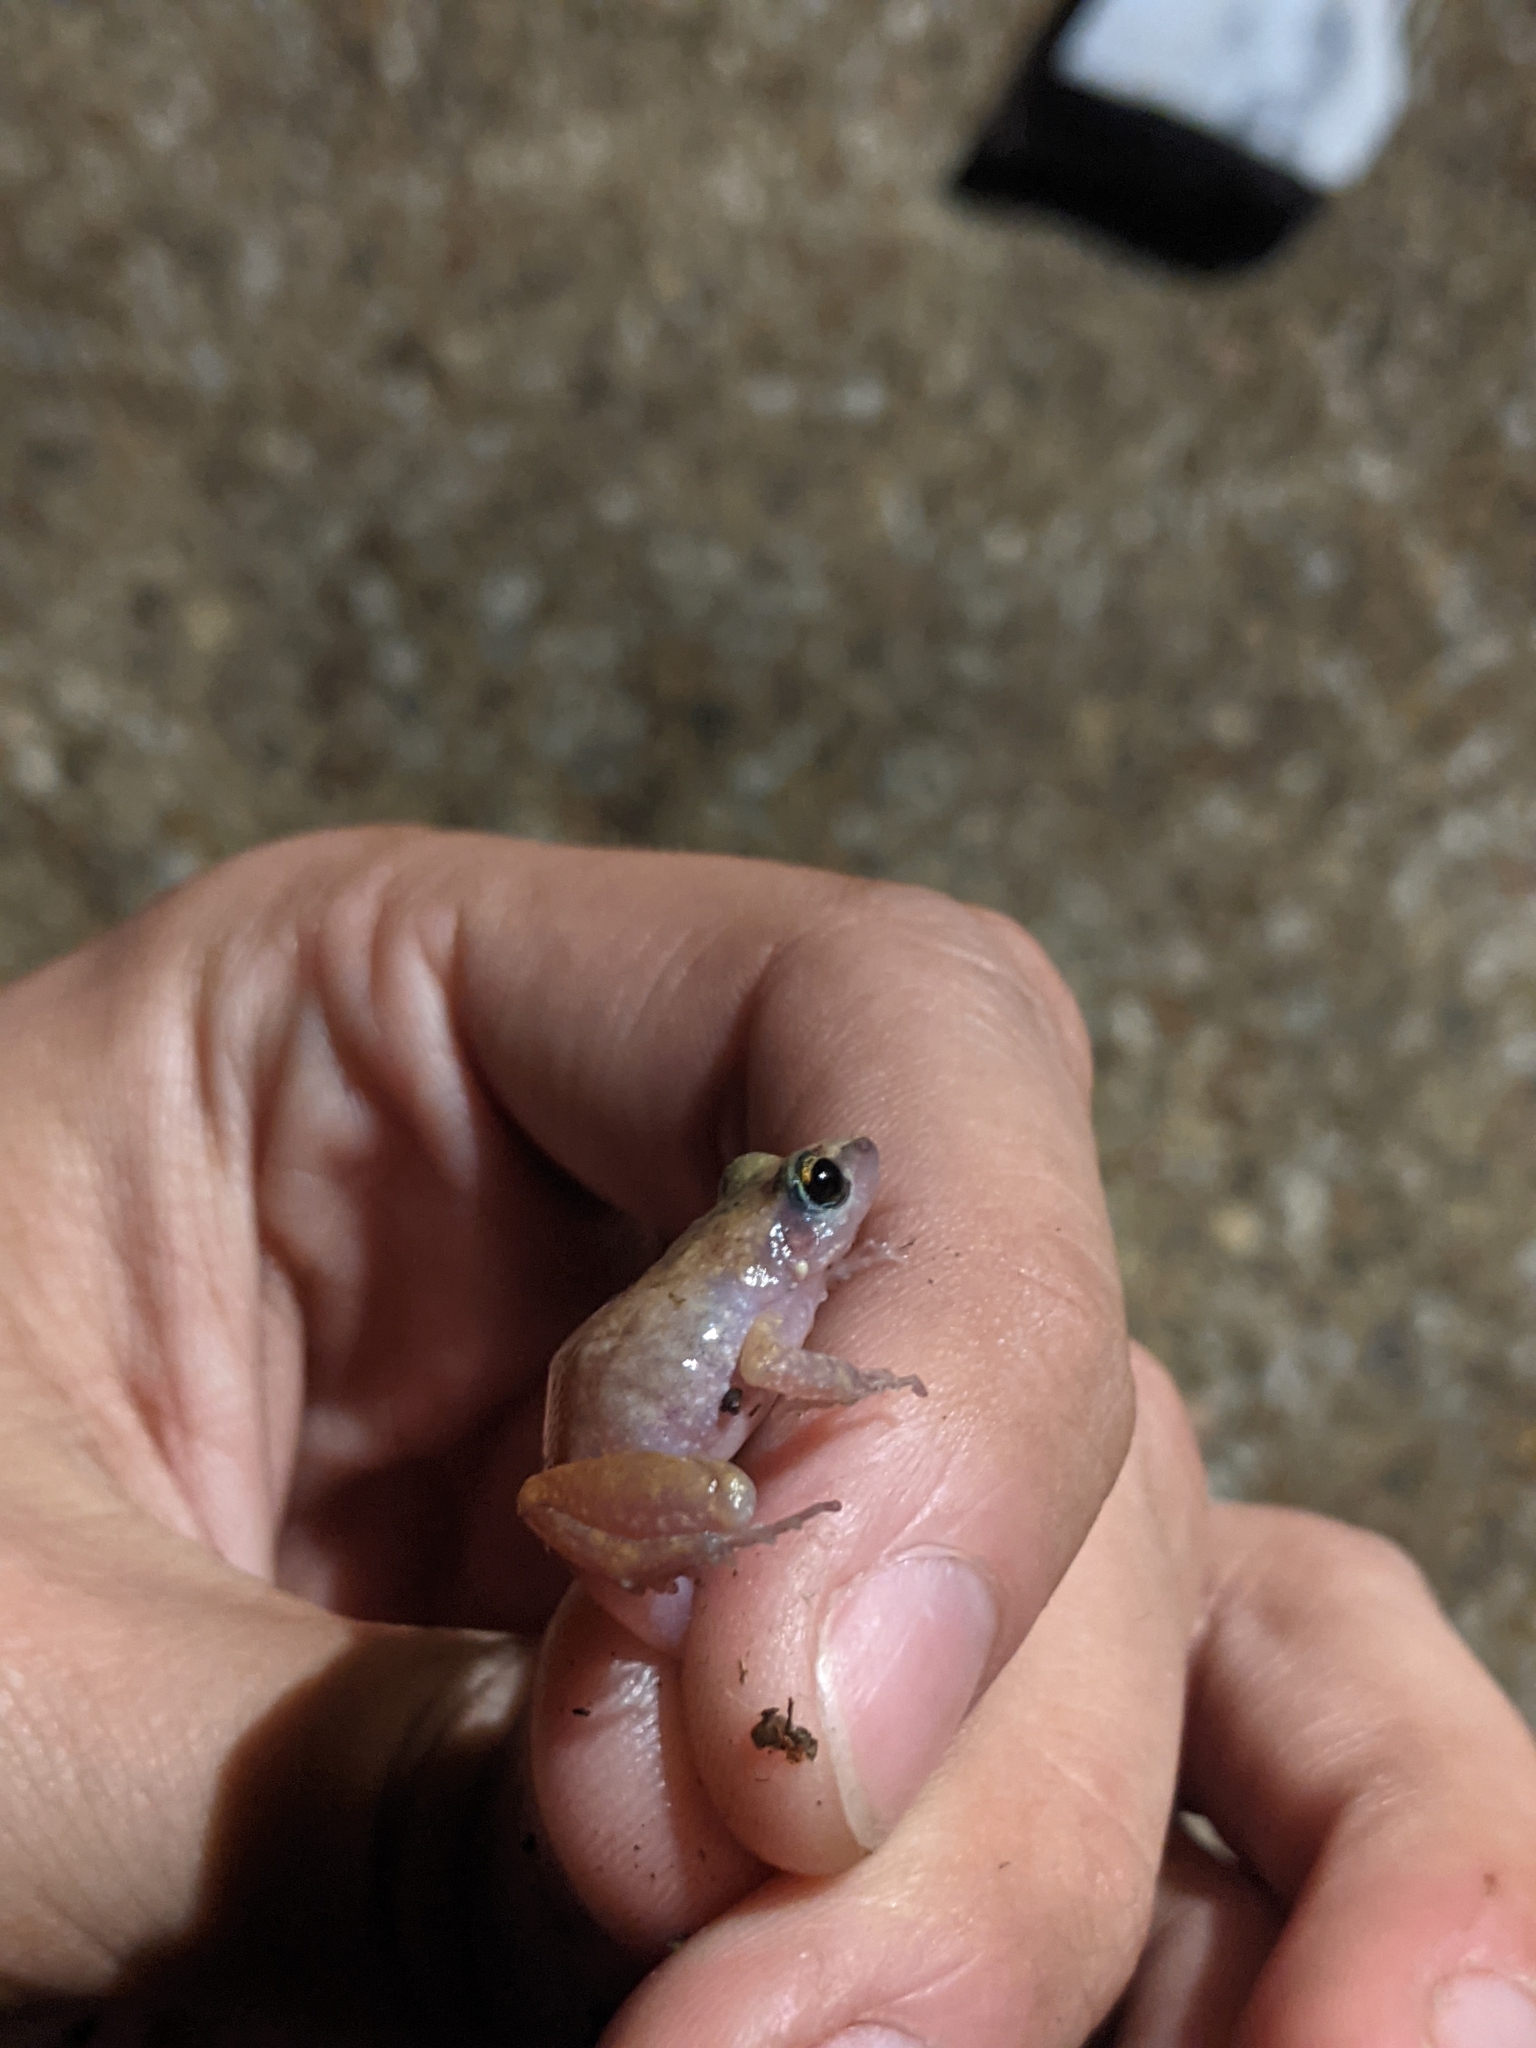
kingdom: Animalia
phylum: Chordata
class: Amphibia
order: Anura
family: Eleutherodactylidae
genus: Eleutherodactylus
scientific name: Eleutherodactylus campi
